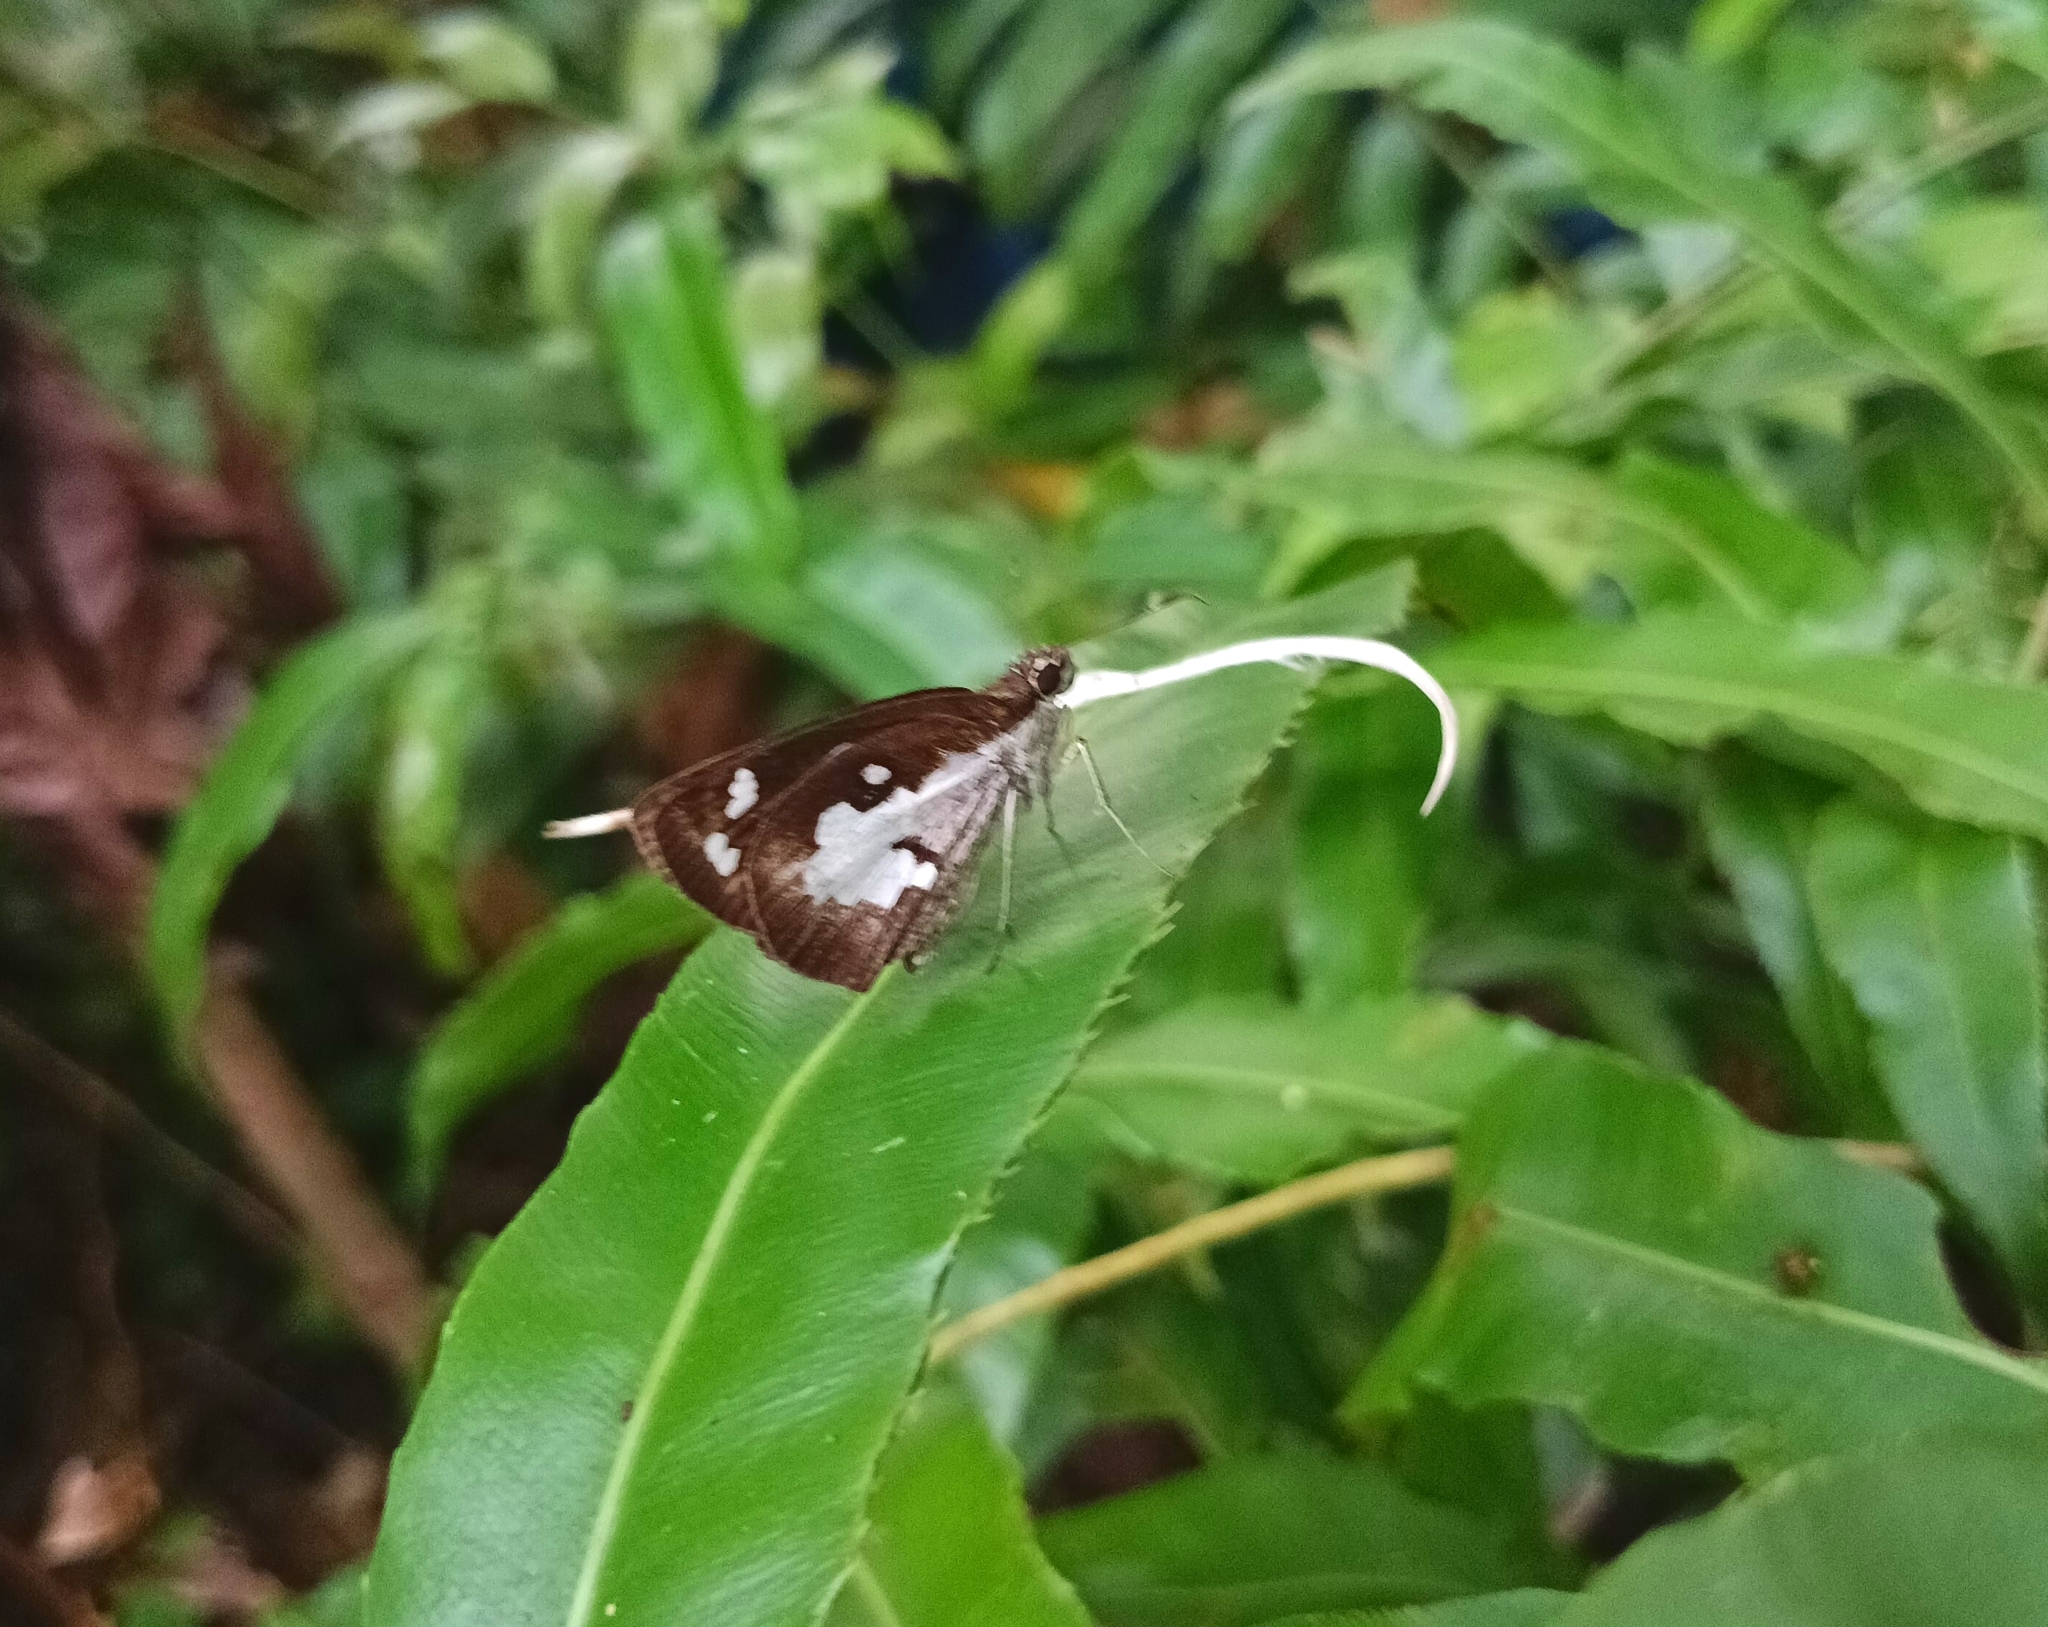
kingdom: Animalia
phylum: Arthropoda
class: Insecta
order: Lepidoptera
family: Hesperiidae
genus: Udaspes
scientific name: Udaspes folus
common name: Grass demon
